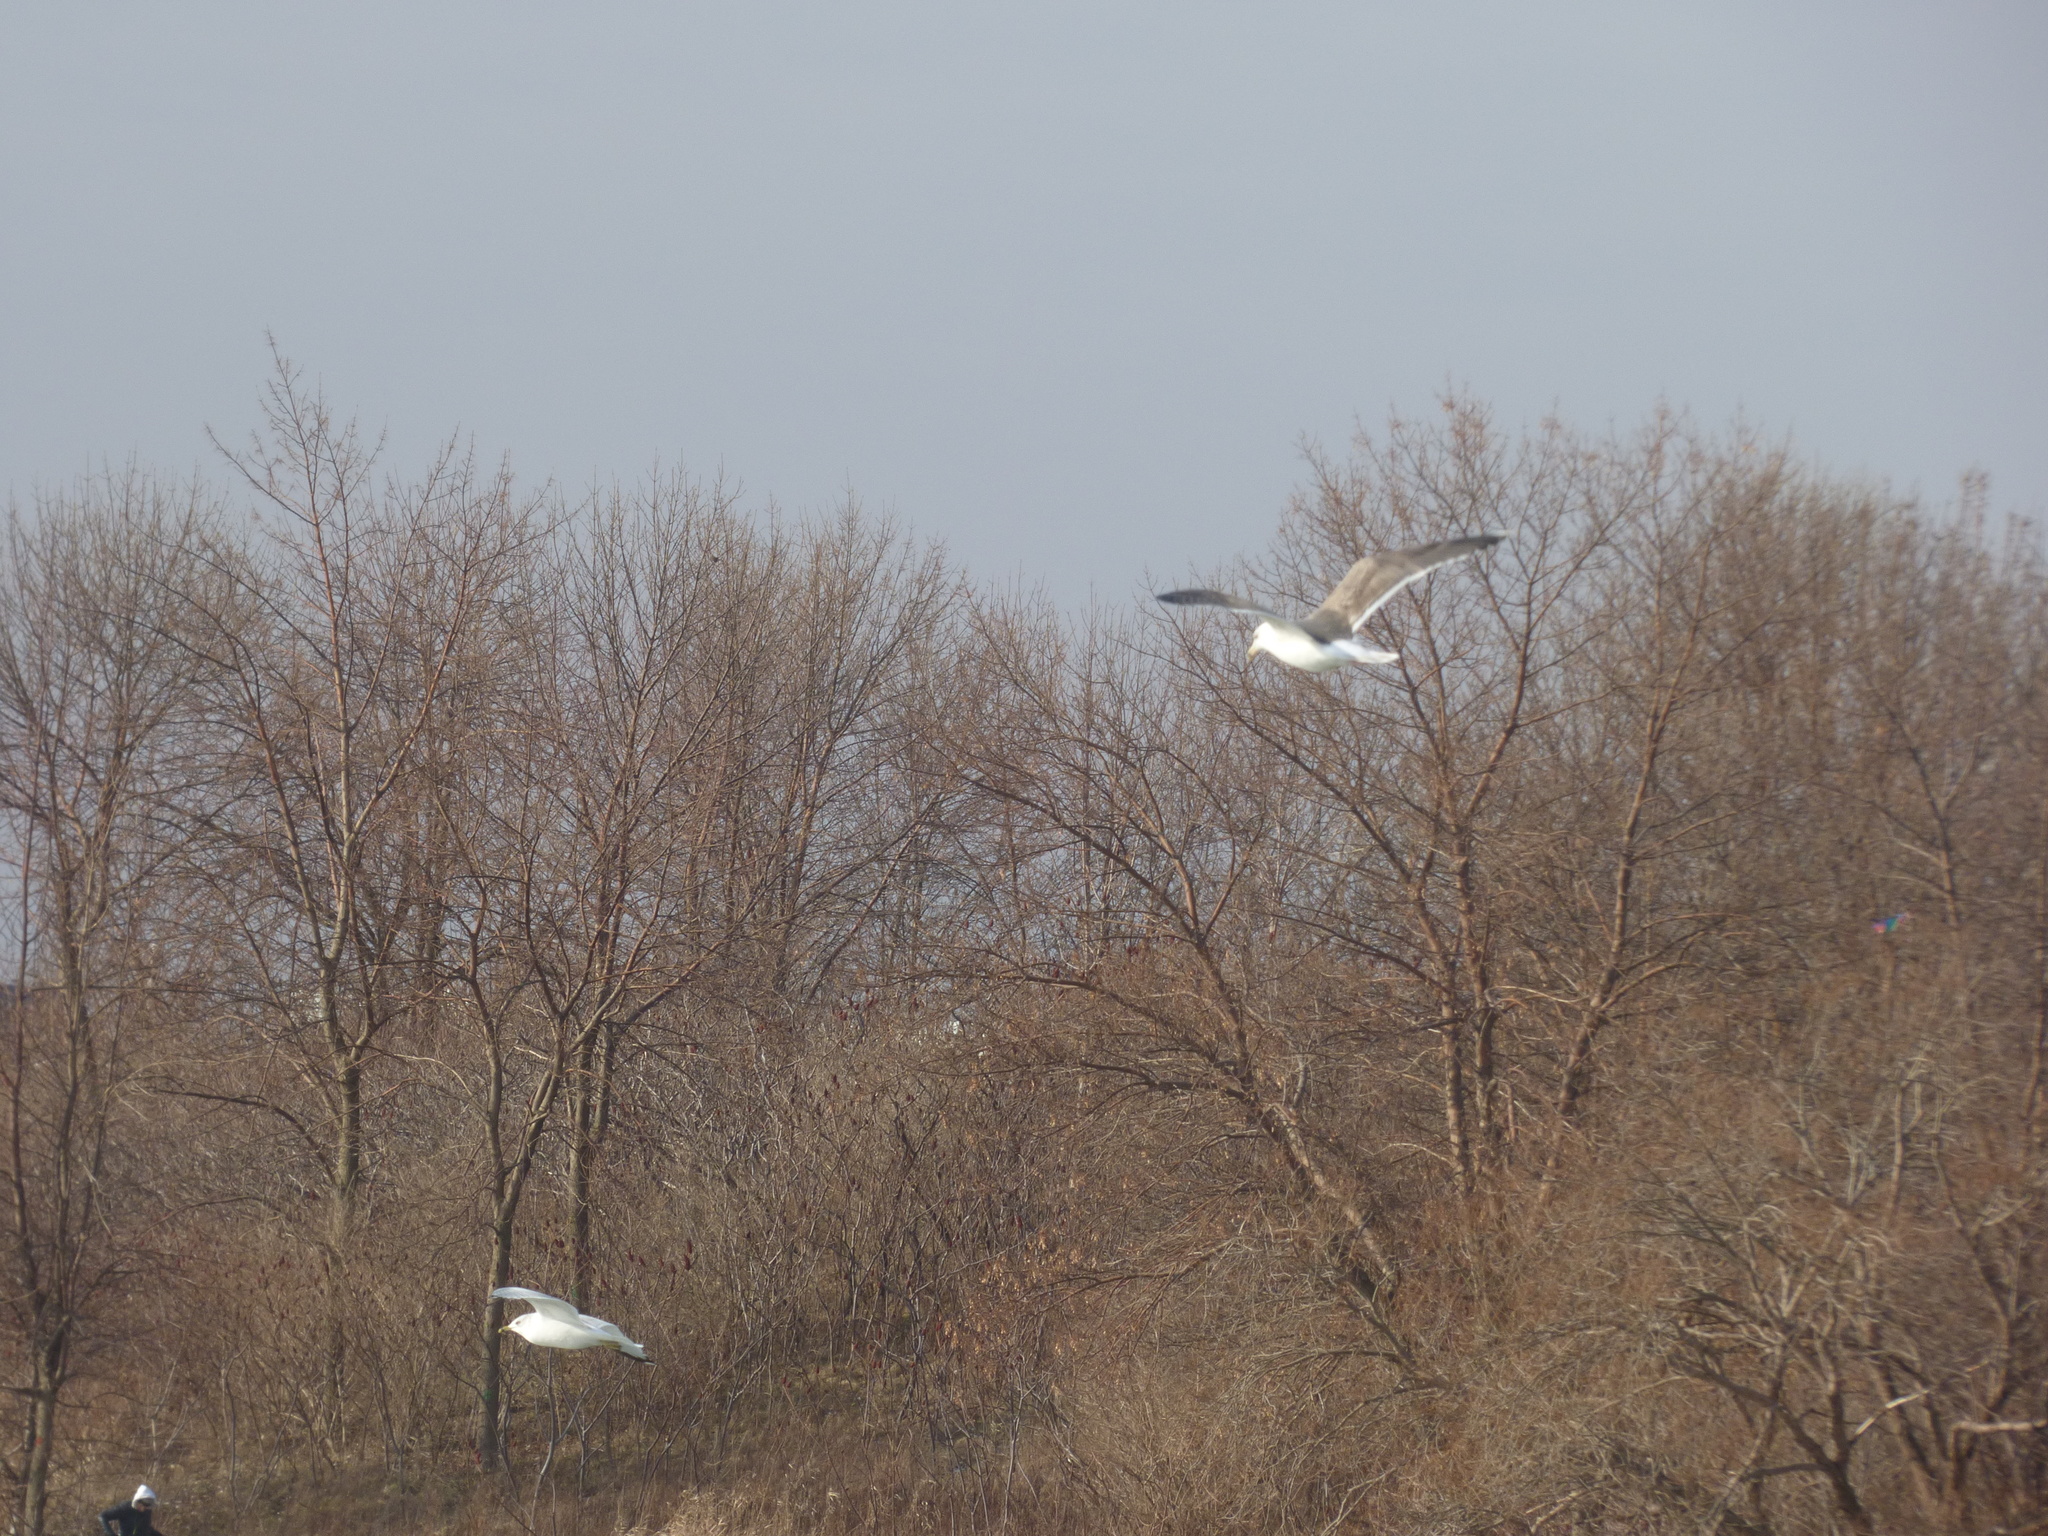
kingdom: Animalia
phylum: Chordata
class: Aves
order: Charadriiformes
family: Laridae
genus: Larus
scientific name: Larus marinus
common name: Great black-backed gull
